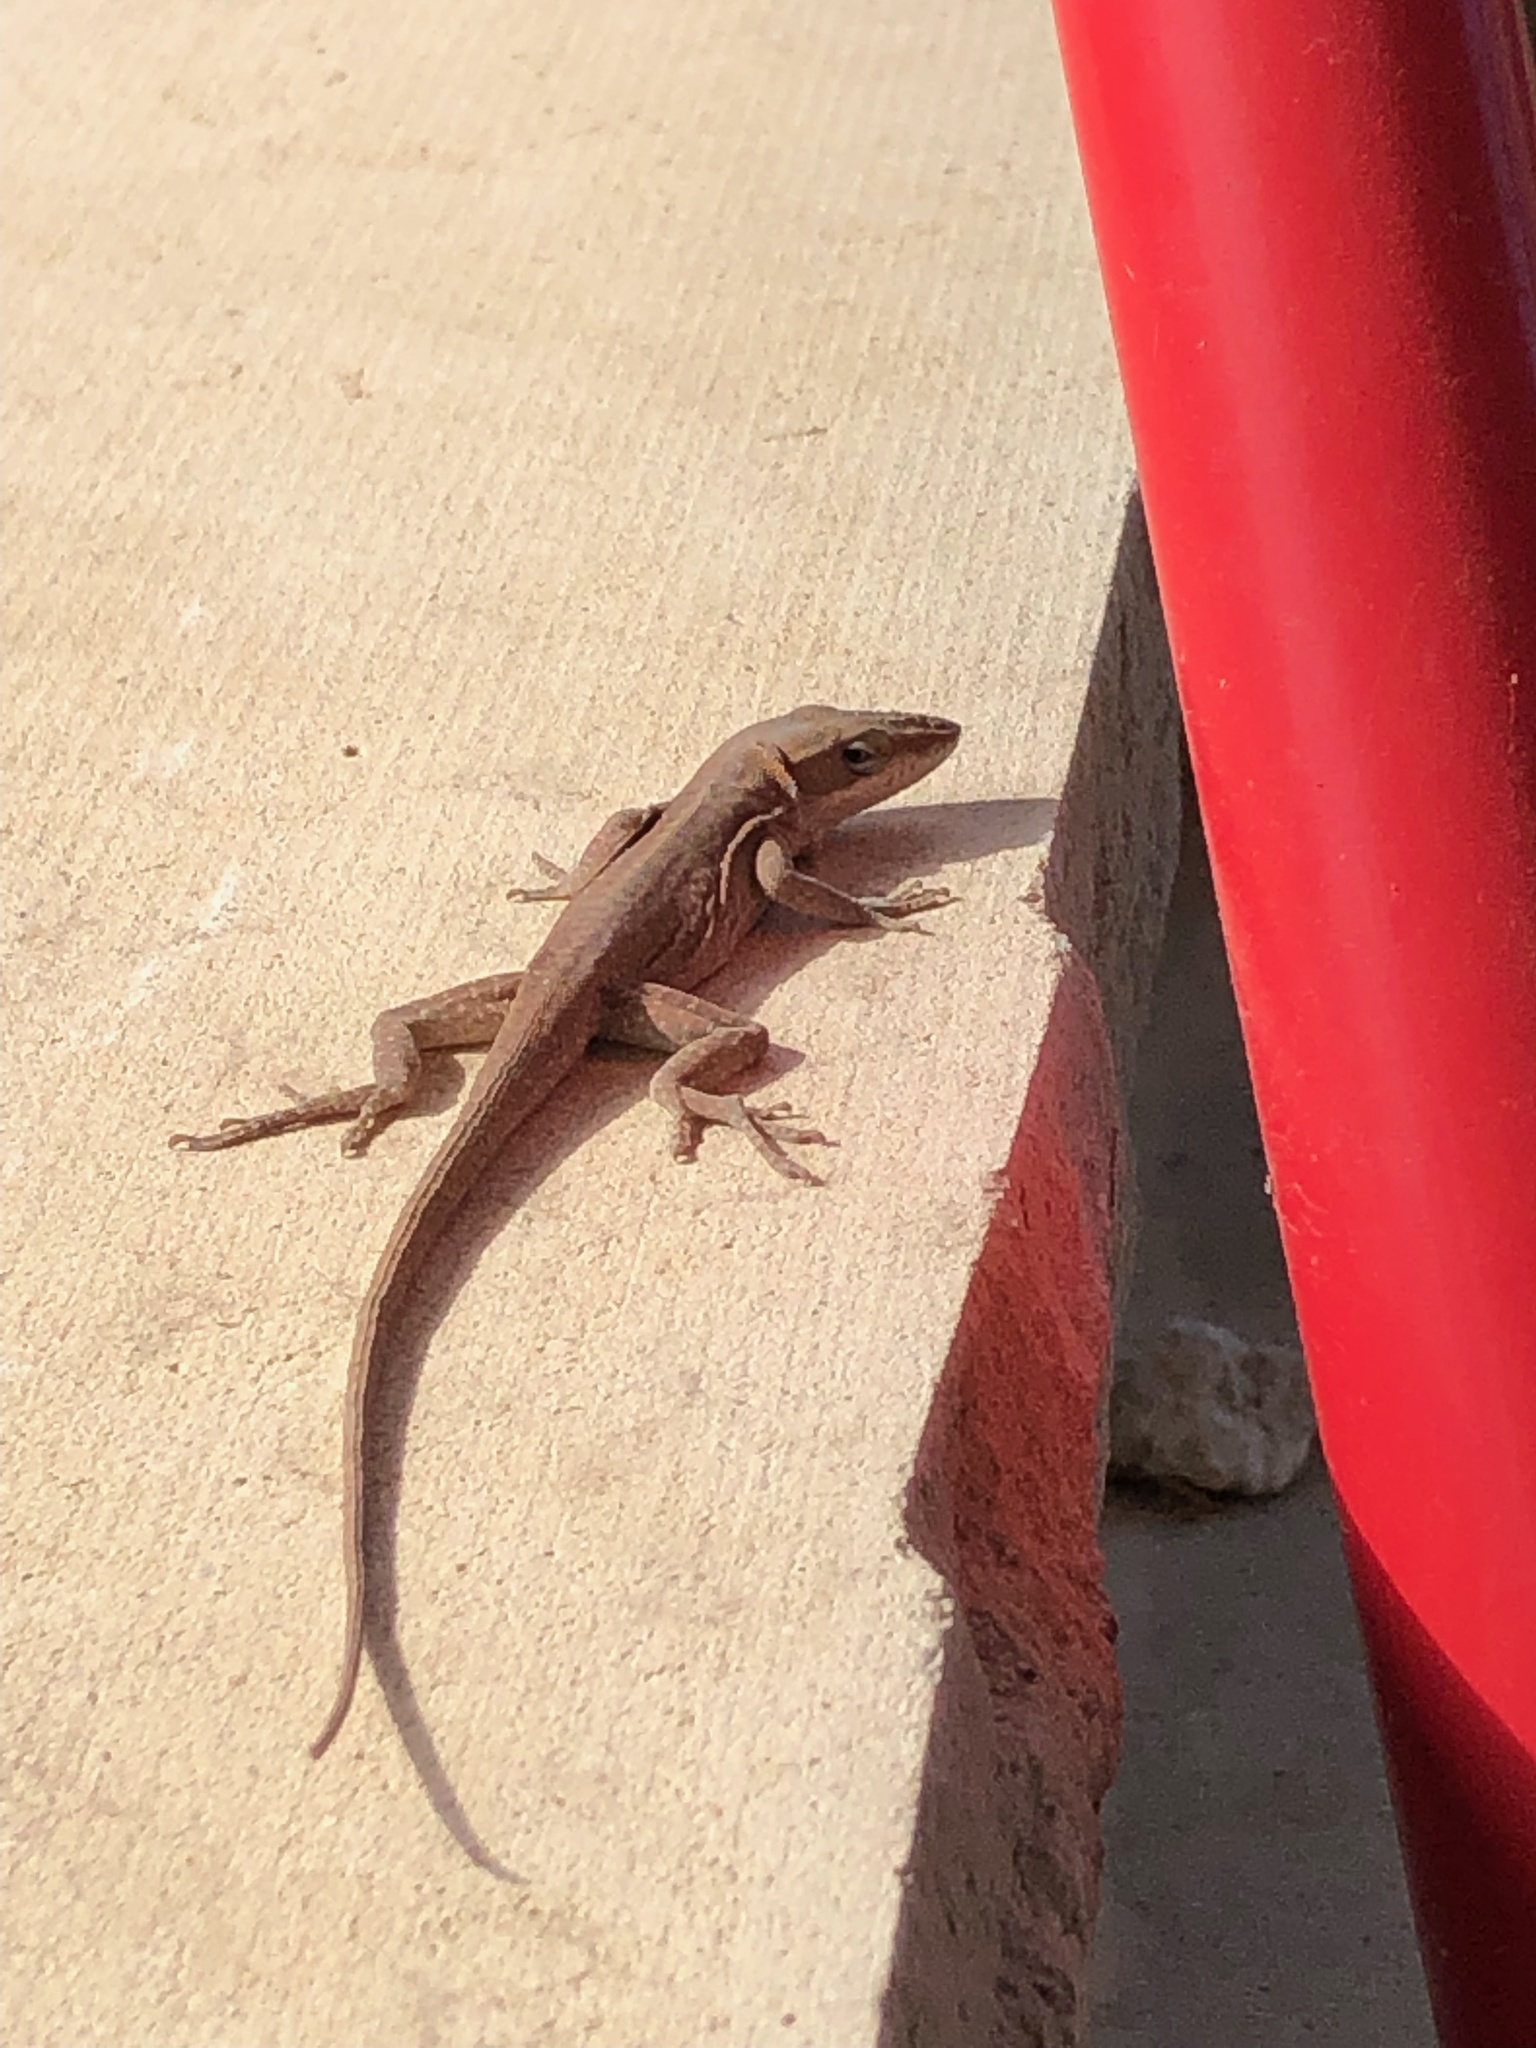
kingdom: Animalia
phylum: Chordata
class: Squamata
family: Dactyloidae
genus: Anolis
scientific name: Anolis carolinensis
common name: Green anole
